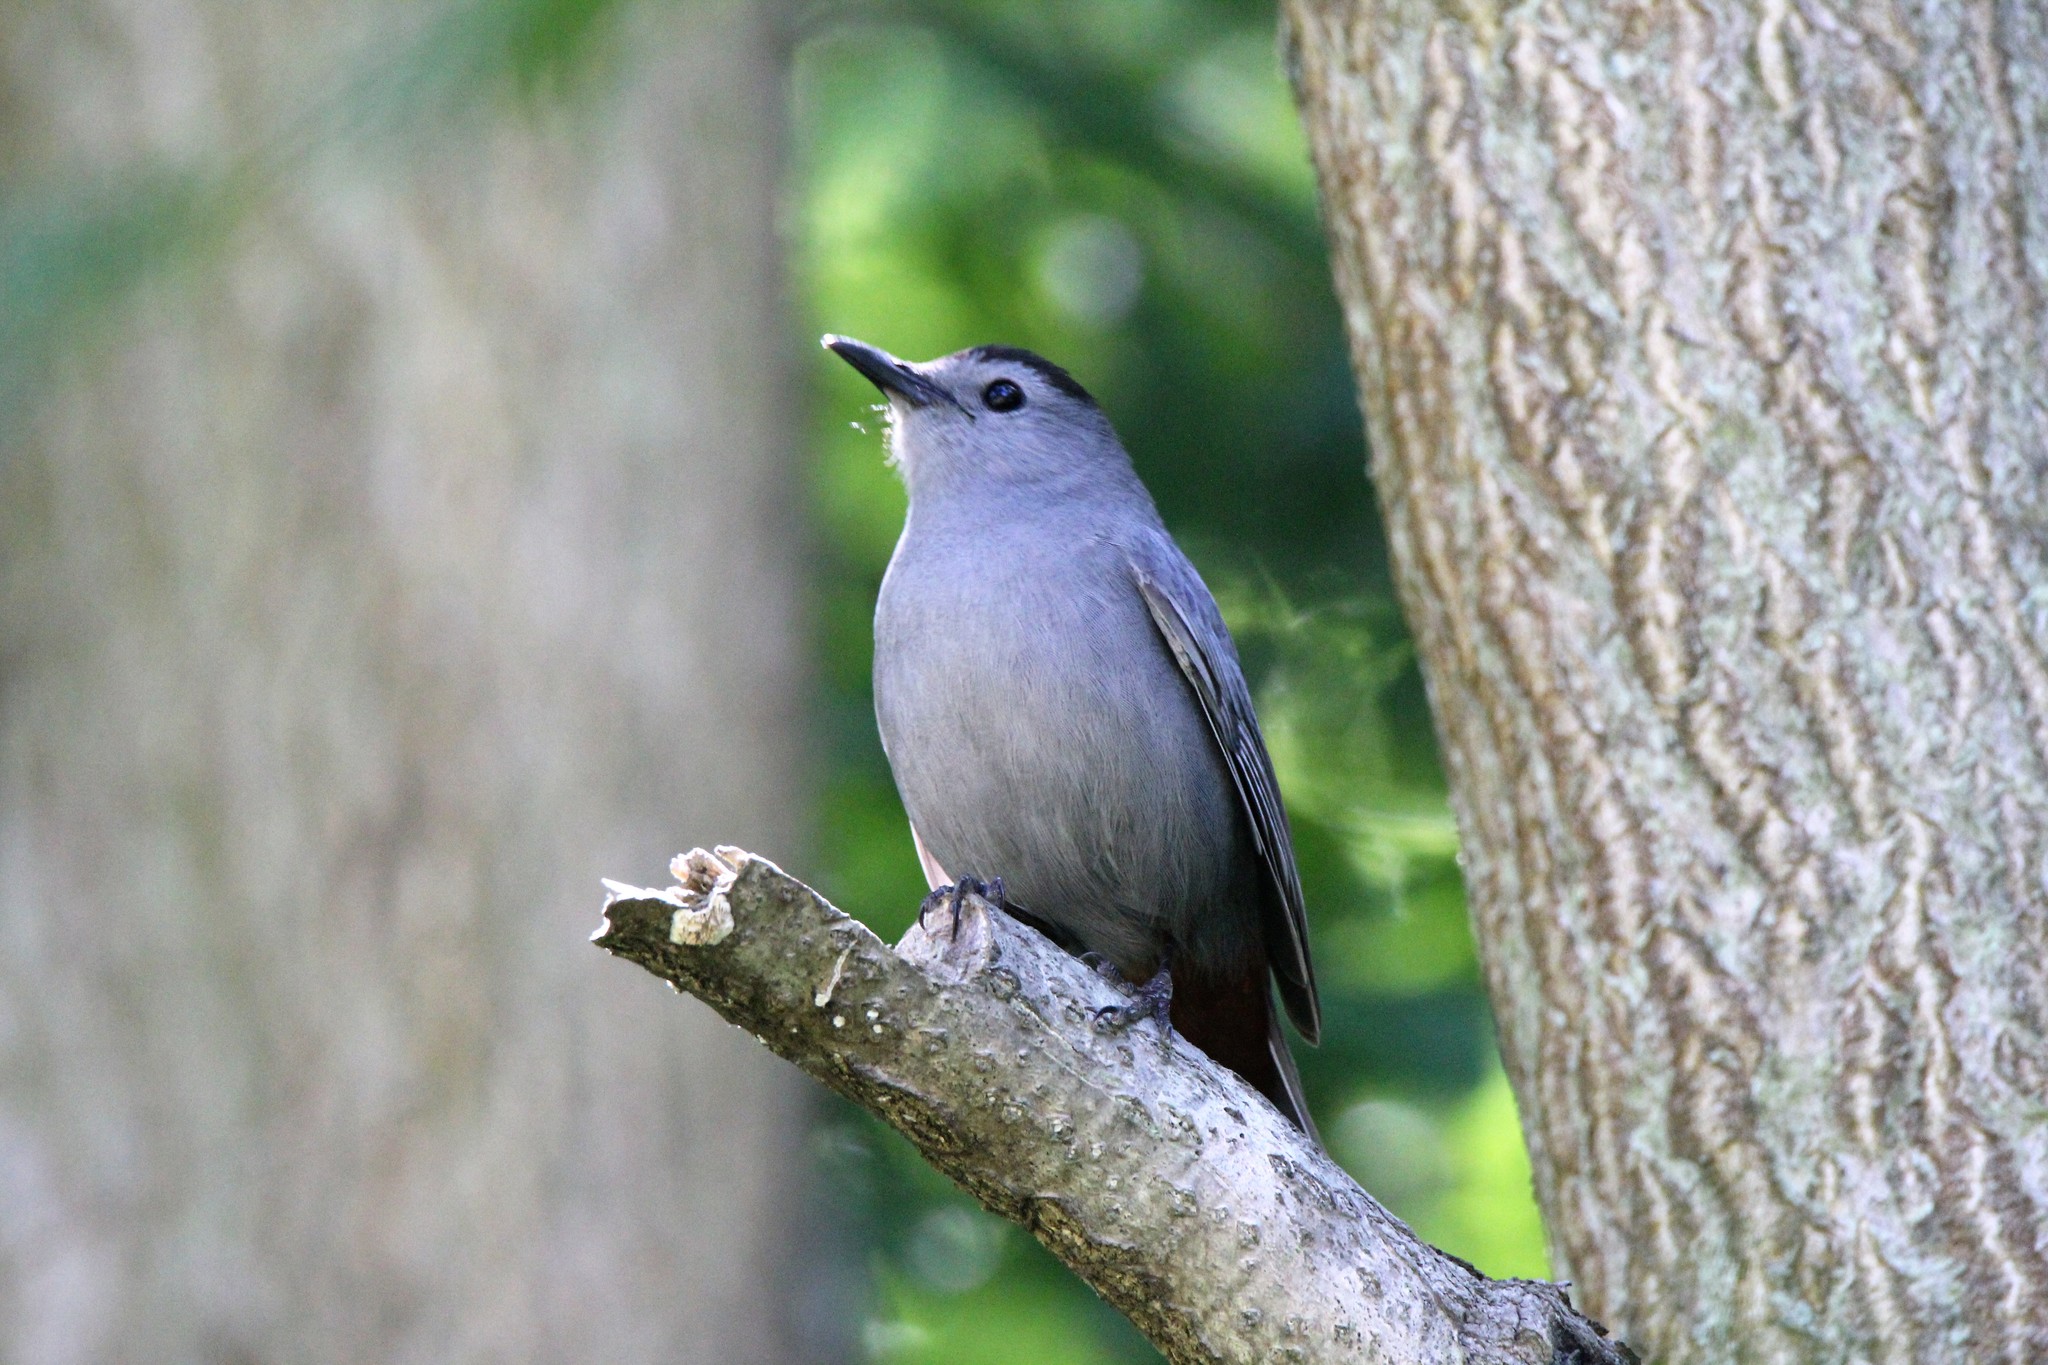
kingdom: Animalia
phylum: Chordata
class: Aves
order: Passeriformes
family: Mimidae
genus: Dumetella
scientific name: Dumetella carolinensis
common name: Gray catbird
